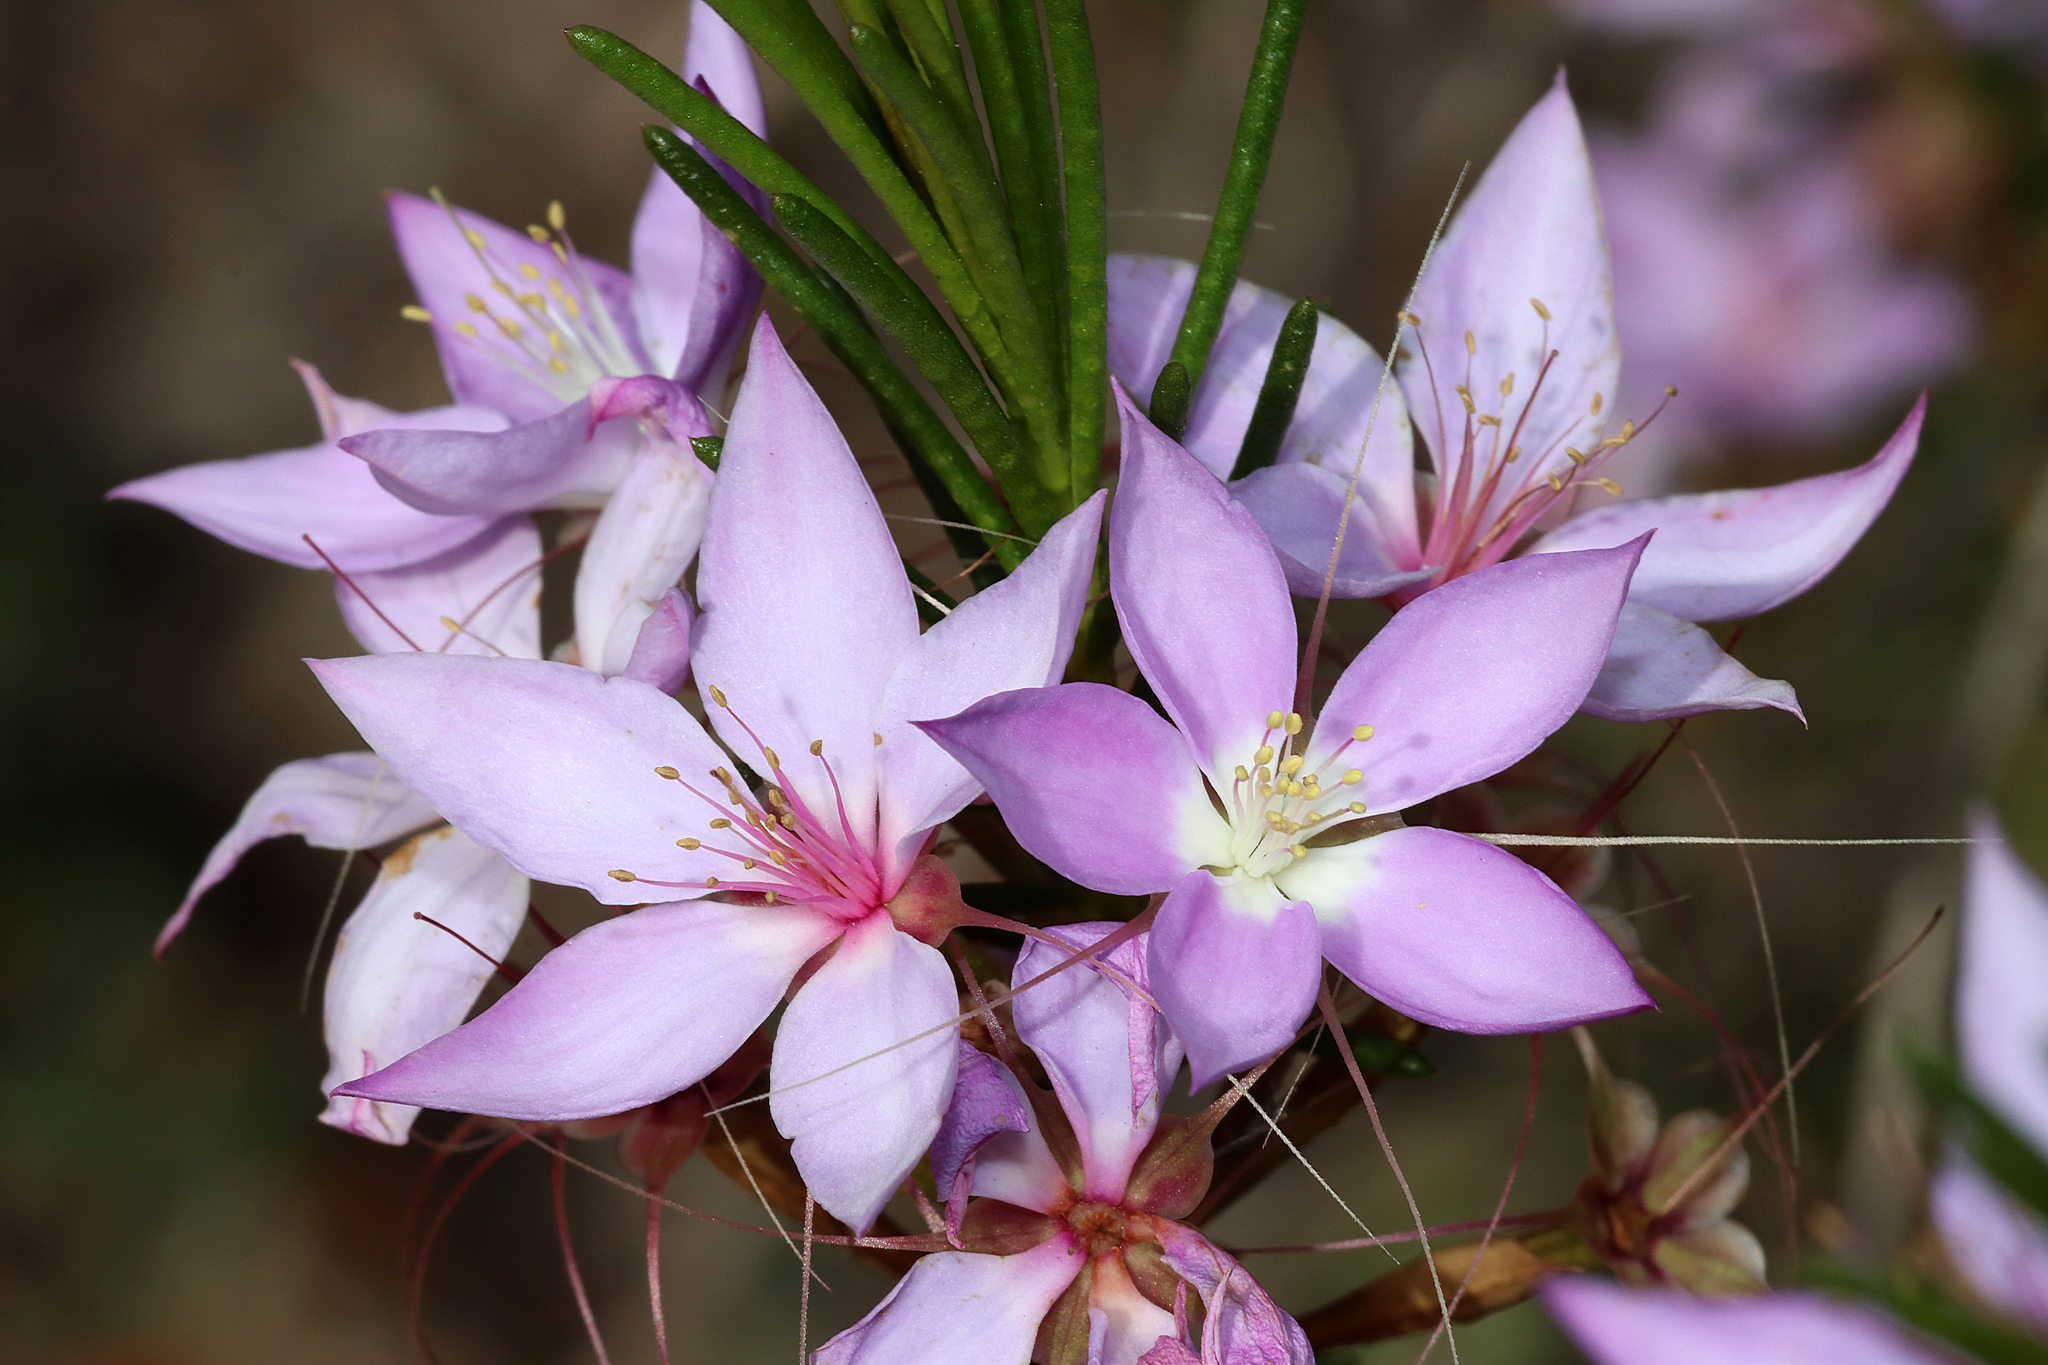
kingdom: Plantae
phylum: Tracheophyta
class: Magnoliopsida
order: Myrtales
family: Myrtaceae
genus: Calytrix
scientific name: Calytrix glutinosa
